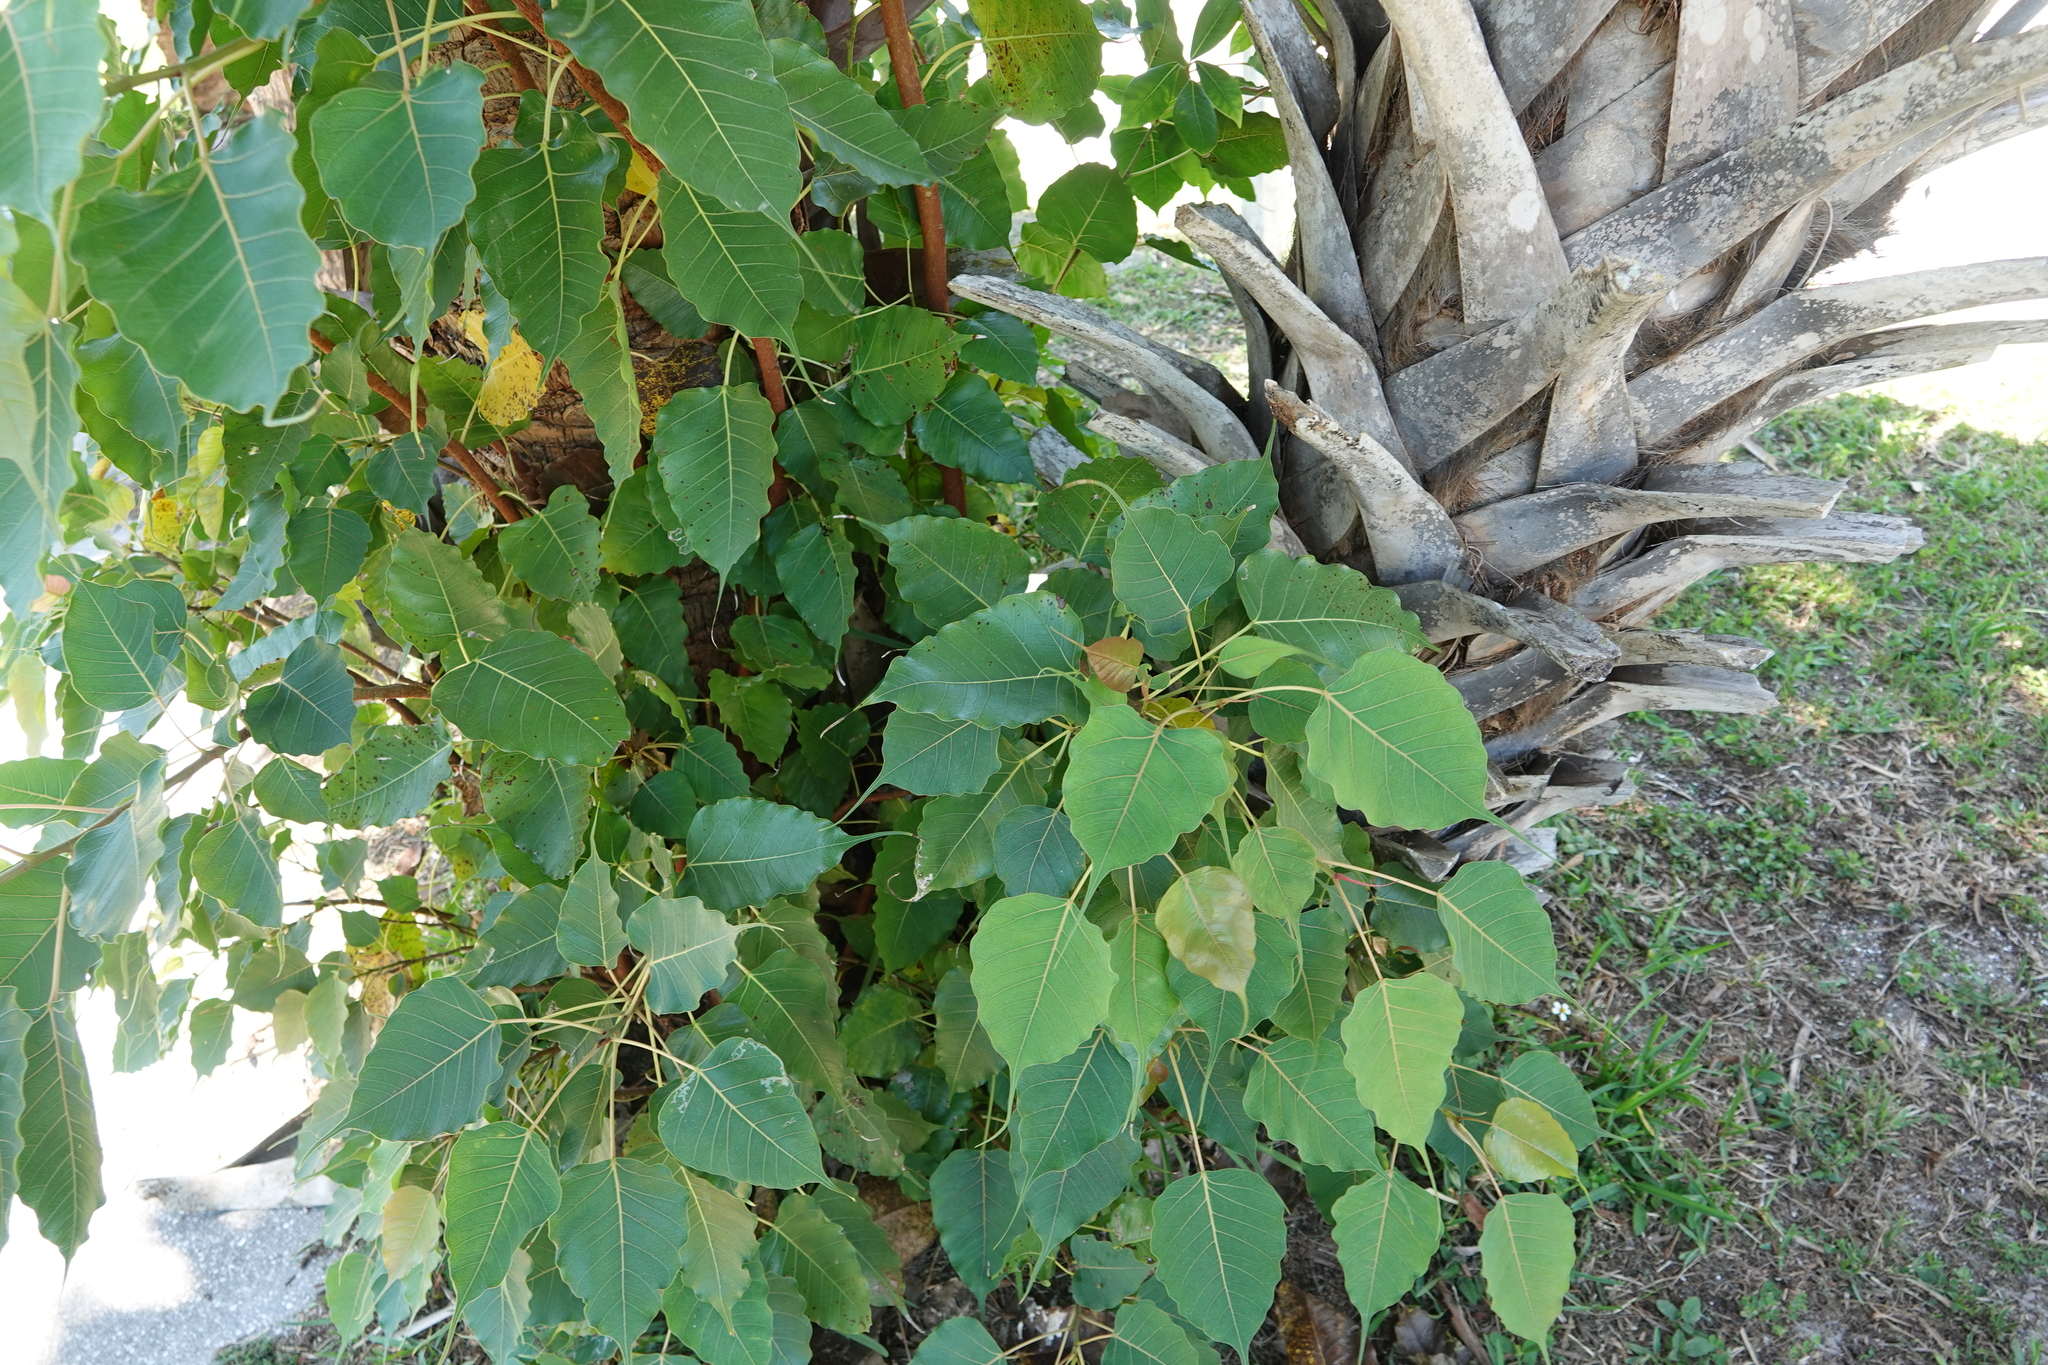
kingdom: Plantae
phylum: Tracheophyta
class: Magnoliopsida
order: Rosales
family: Moraceae
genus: Ficus
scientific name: Ficus religiosa
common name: Bodhi tree
